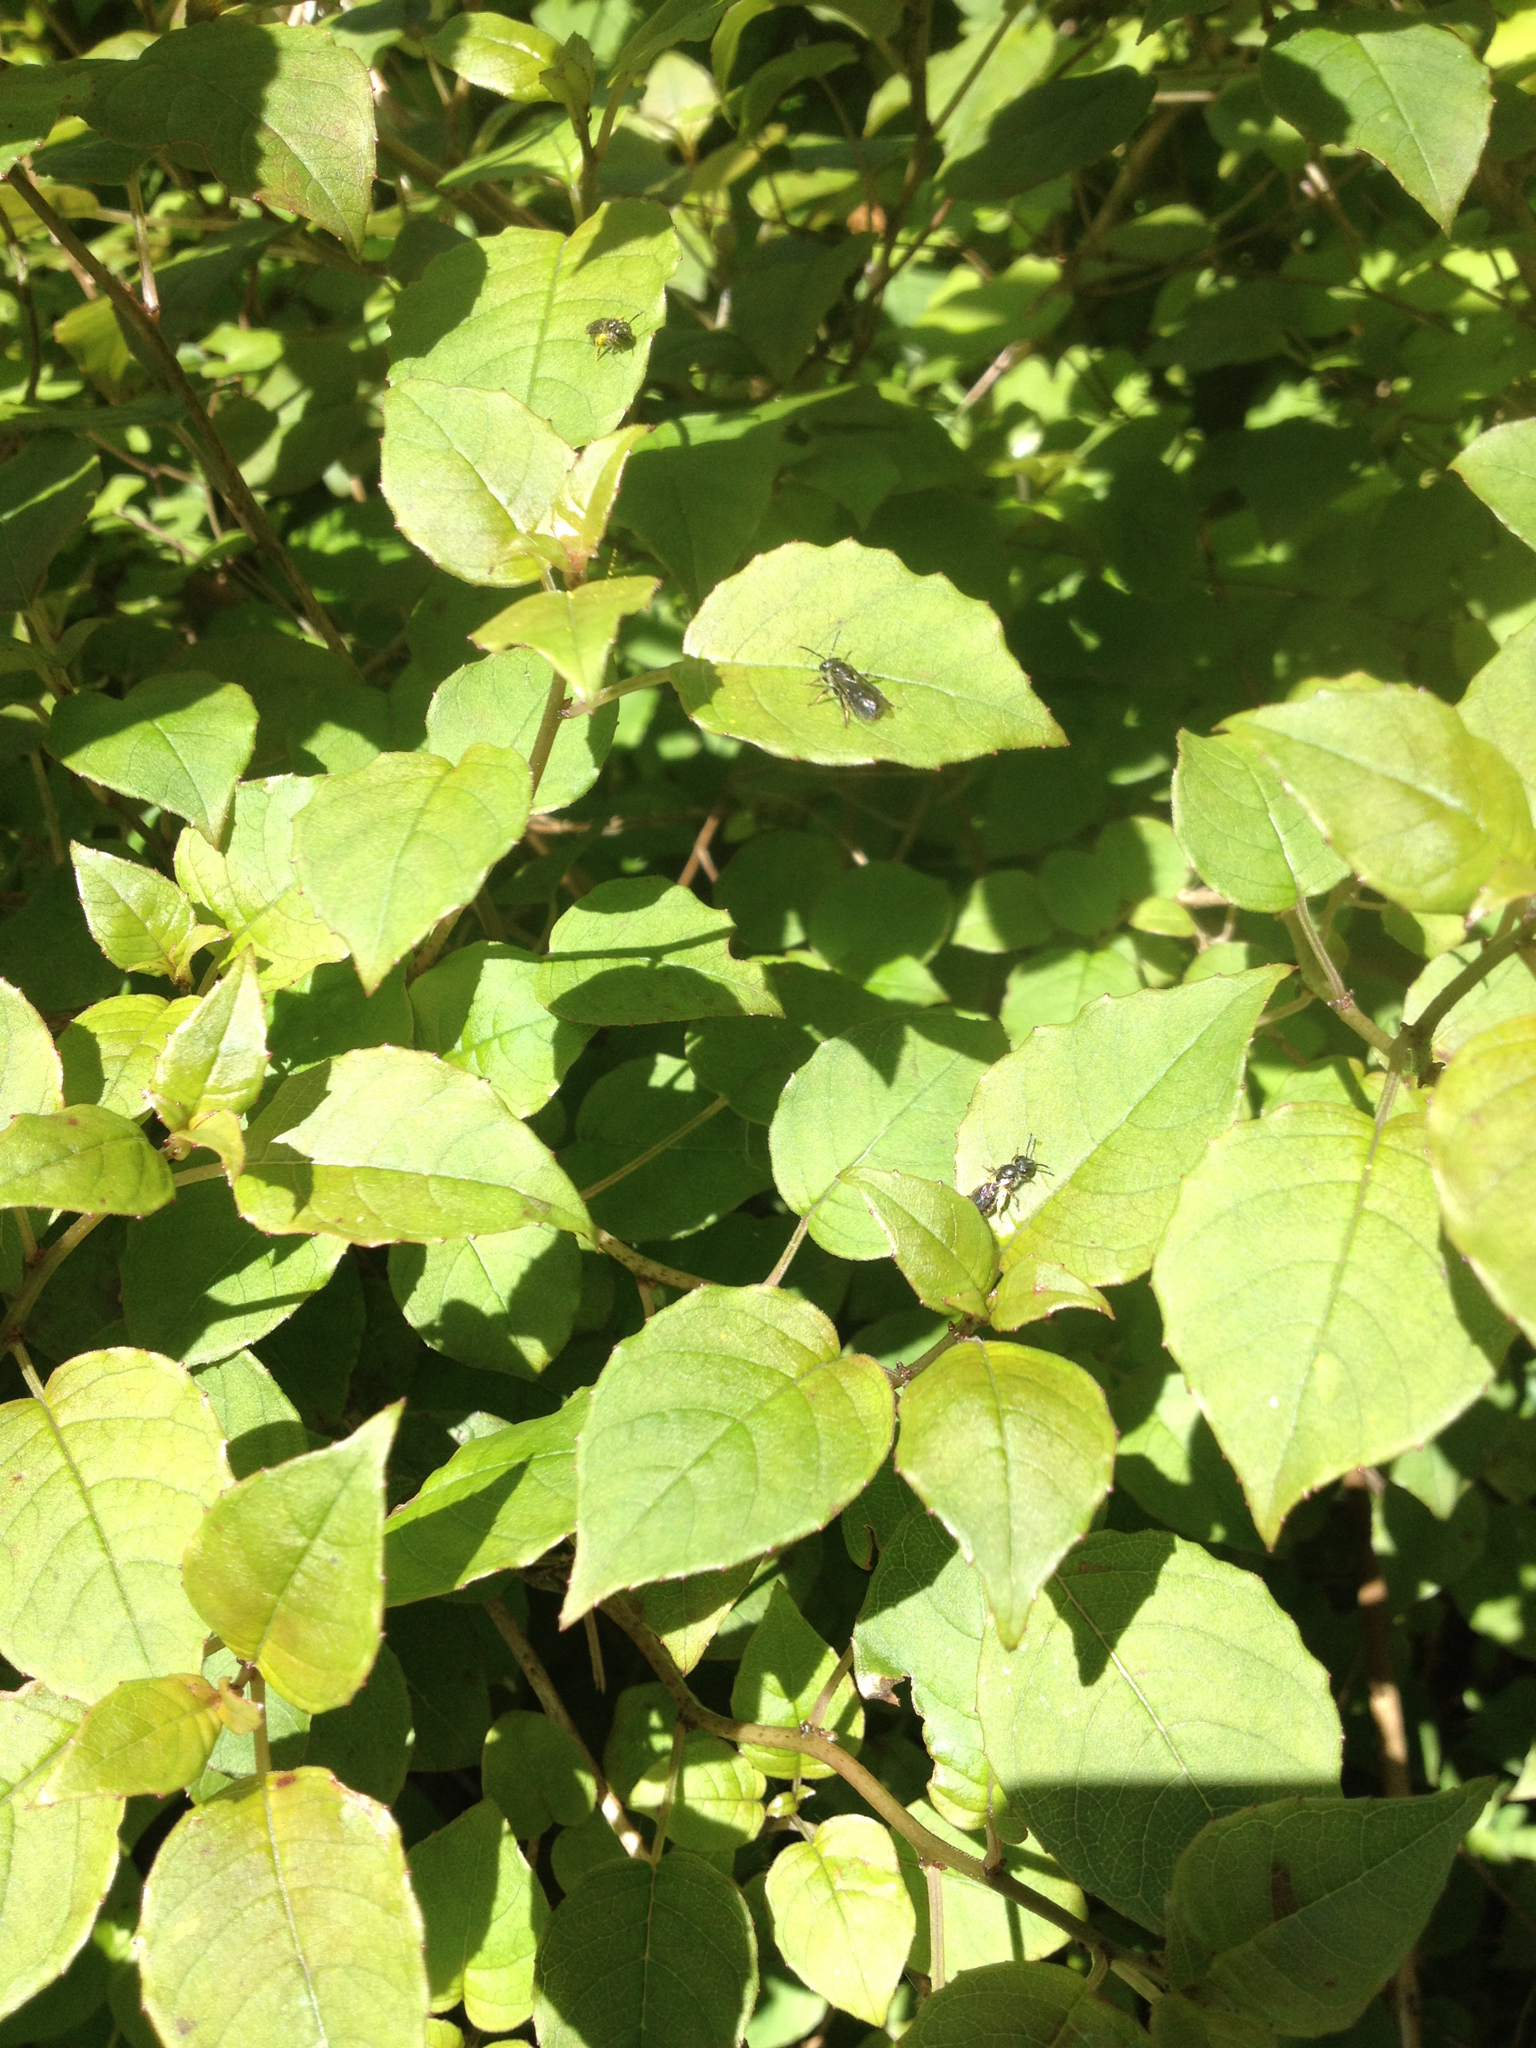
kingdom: Plantae
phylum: Tracheophyta
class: Magnoliopsida
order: Myrtales
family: Onagraceae
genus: Fuchsia
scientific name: Fuchsia perscandens
